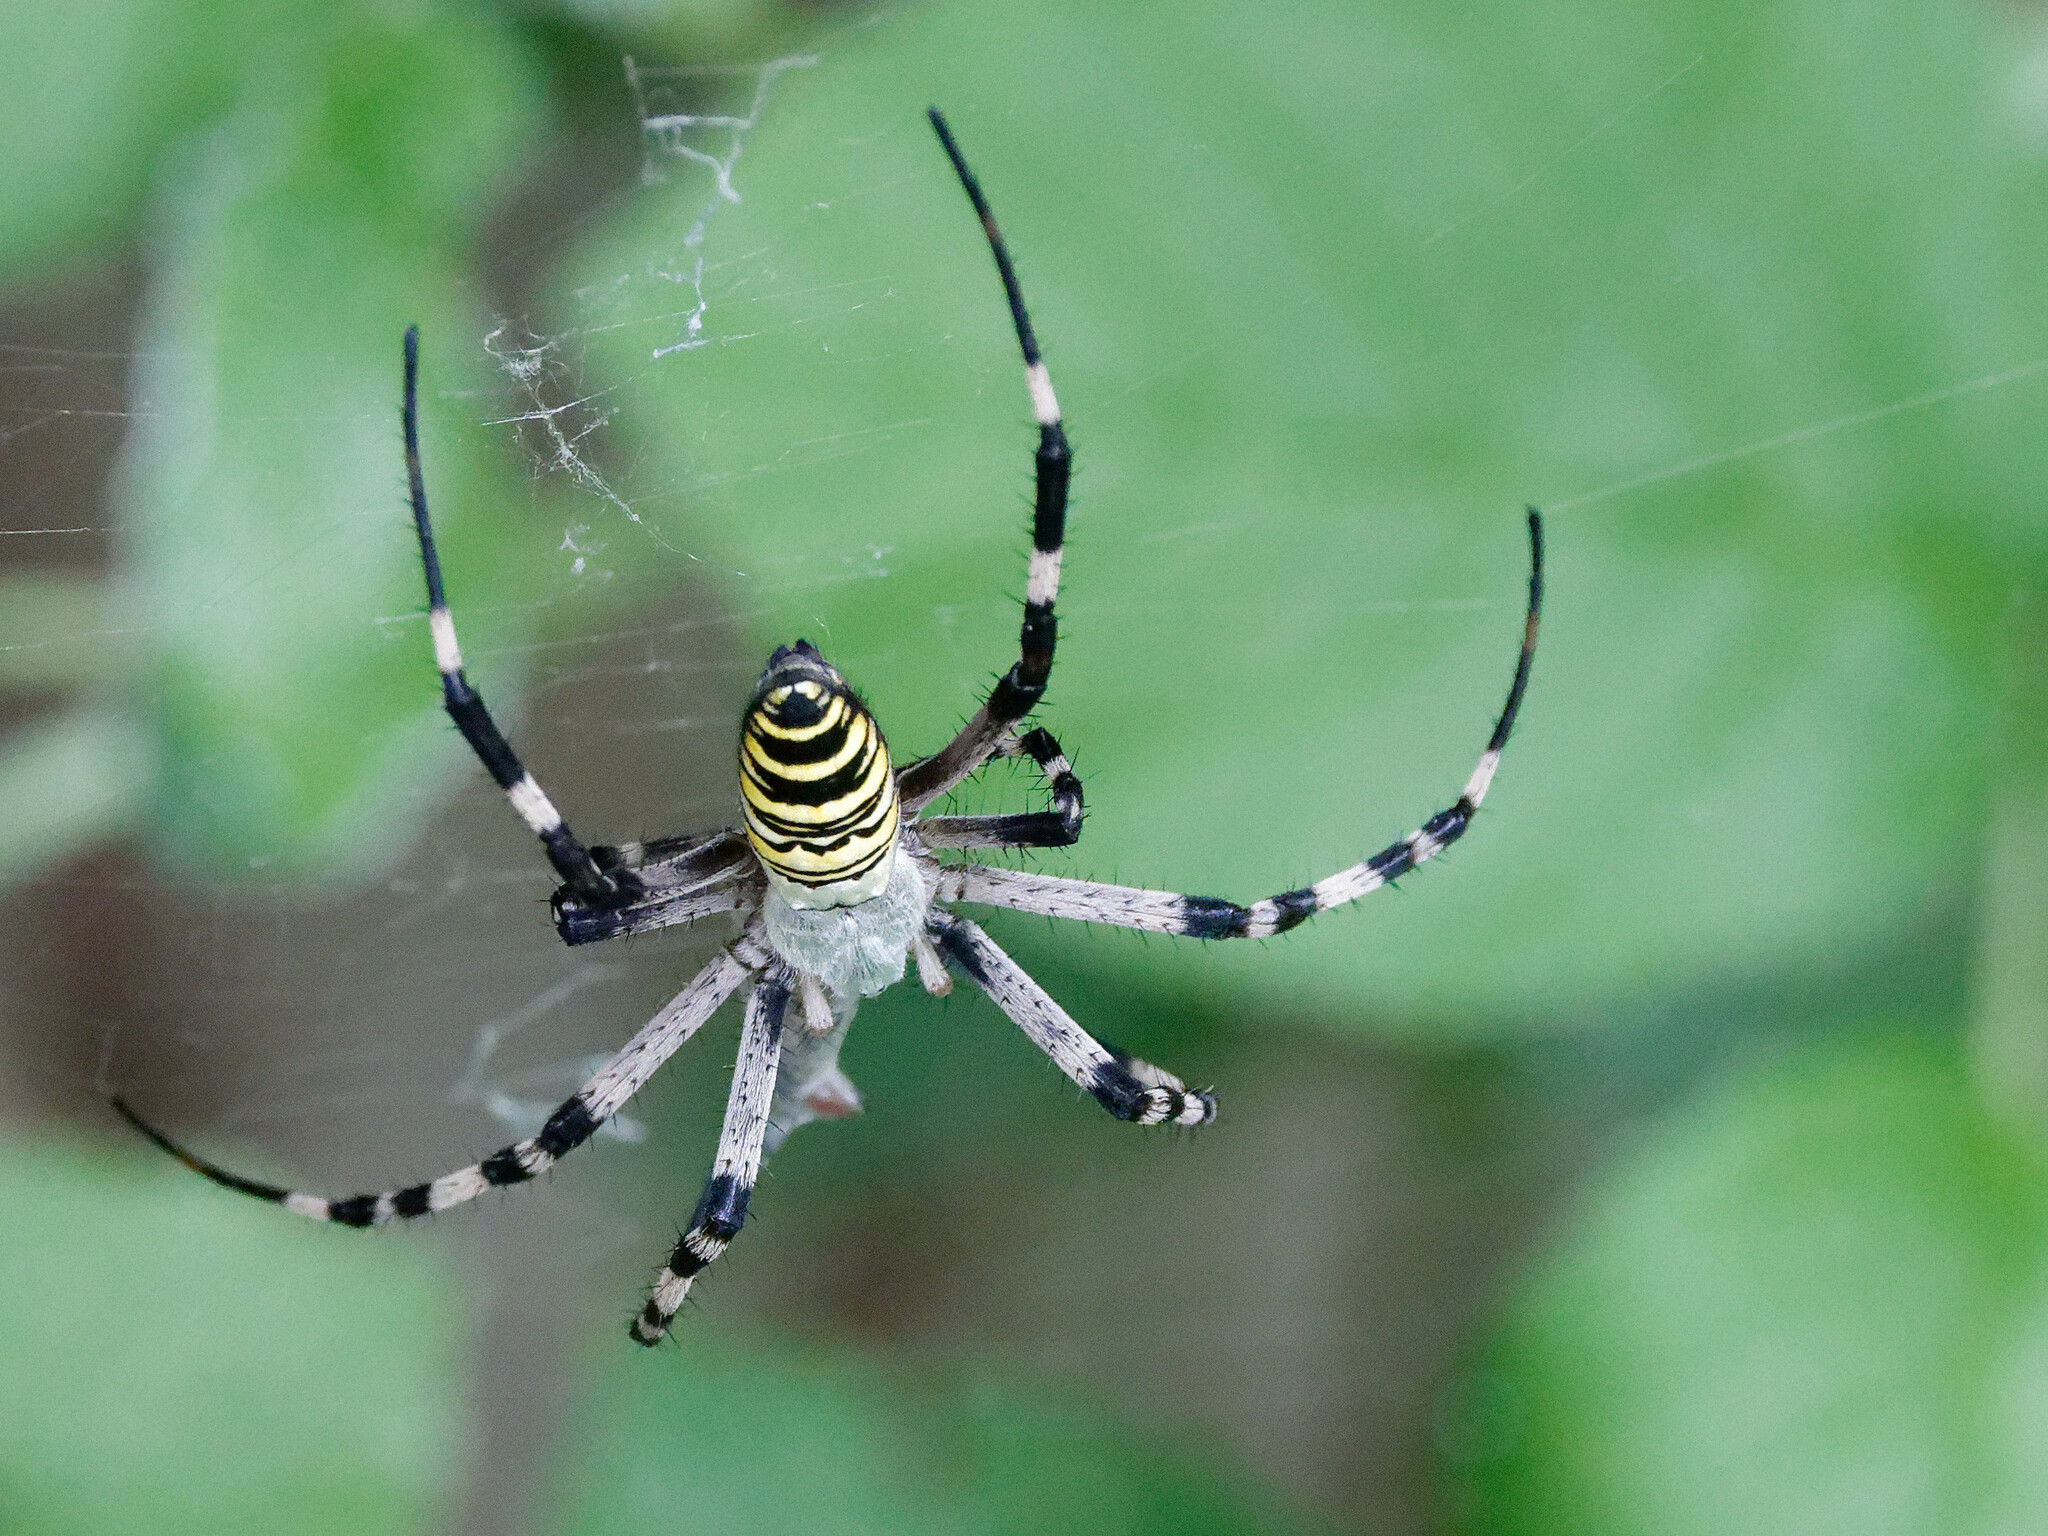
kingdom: Animalia
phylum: Arthropoda
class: Arachnida
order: Araneae
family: Araneidae
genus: Argiope
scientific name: Argiope bruennichi
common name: Wasp spider
